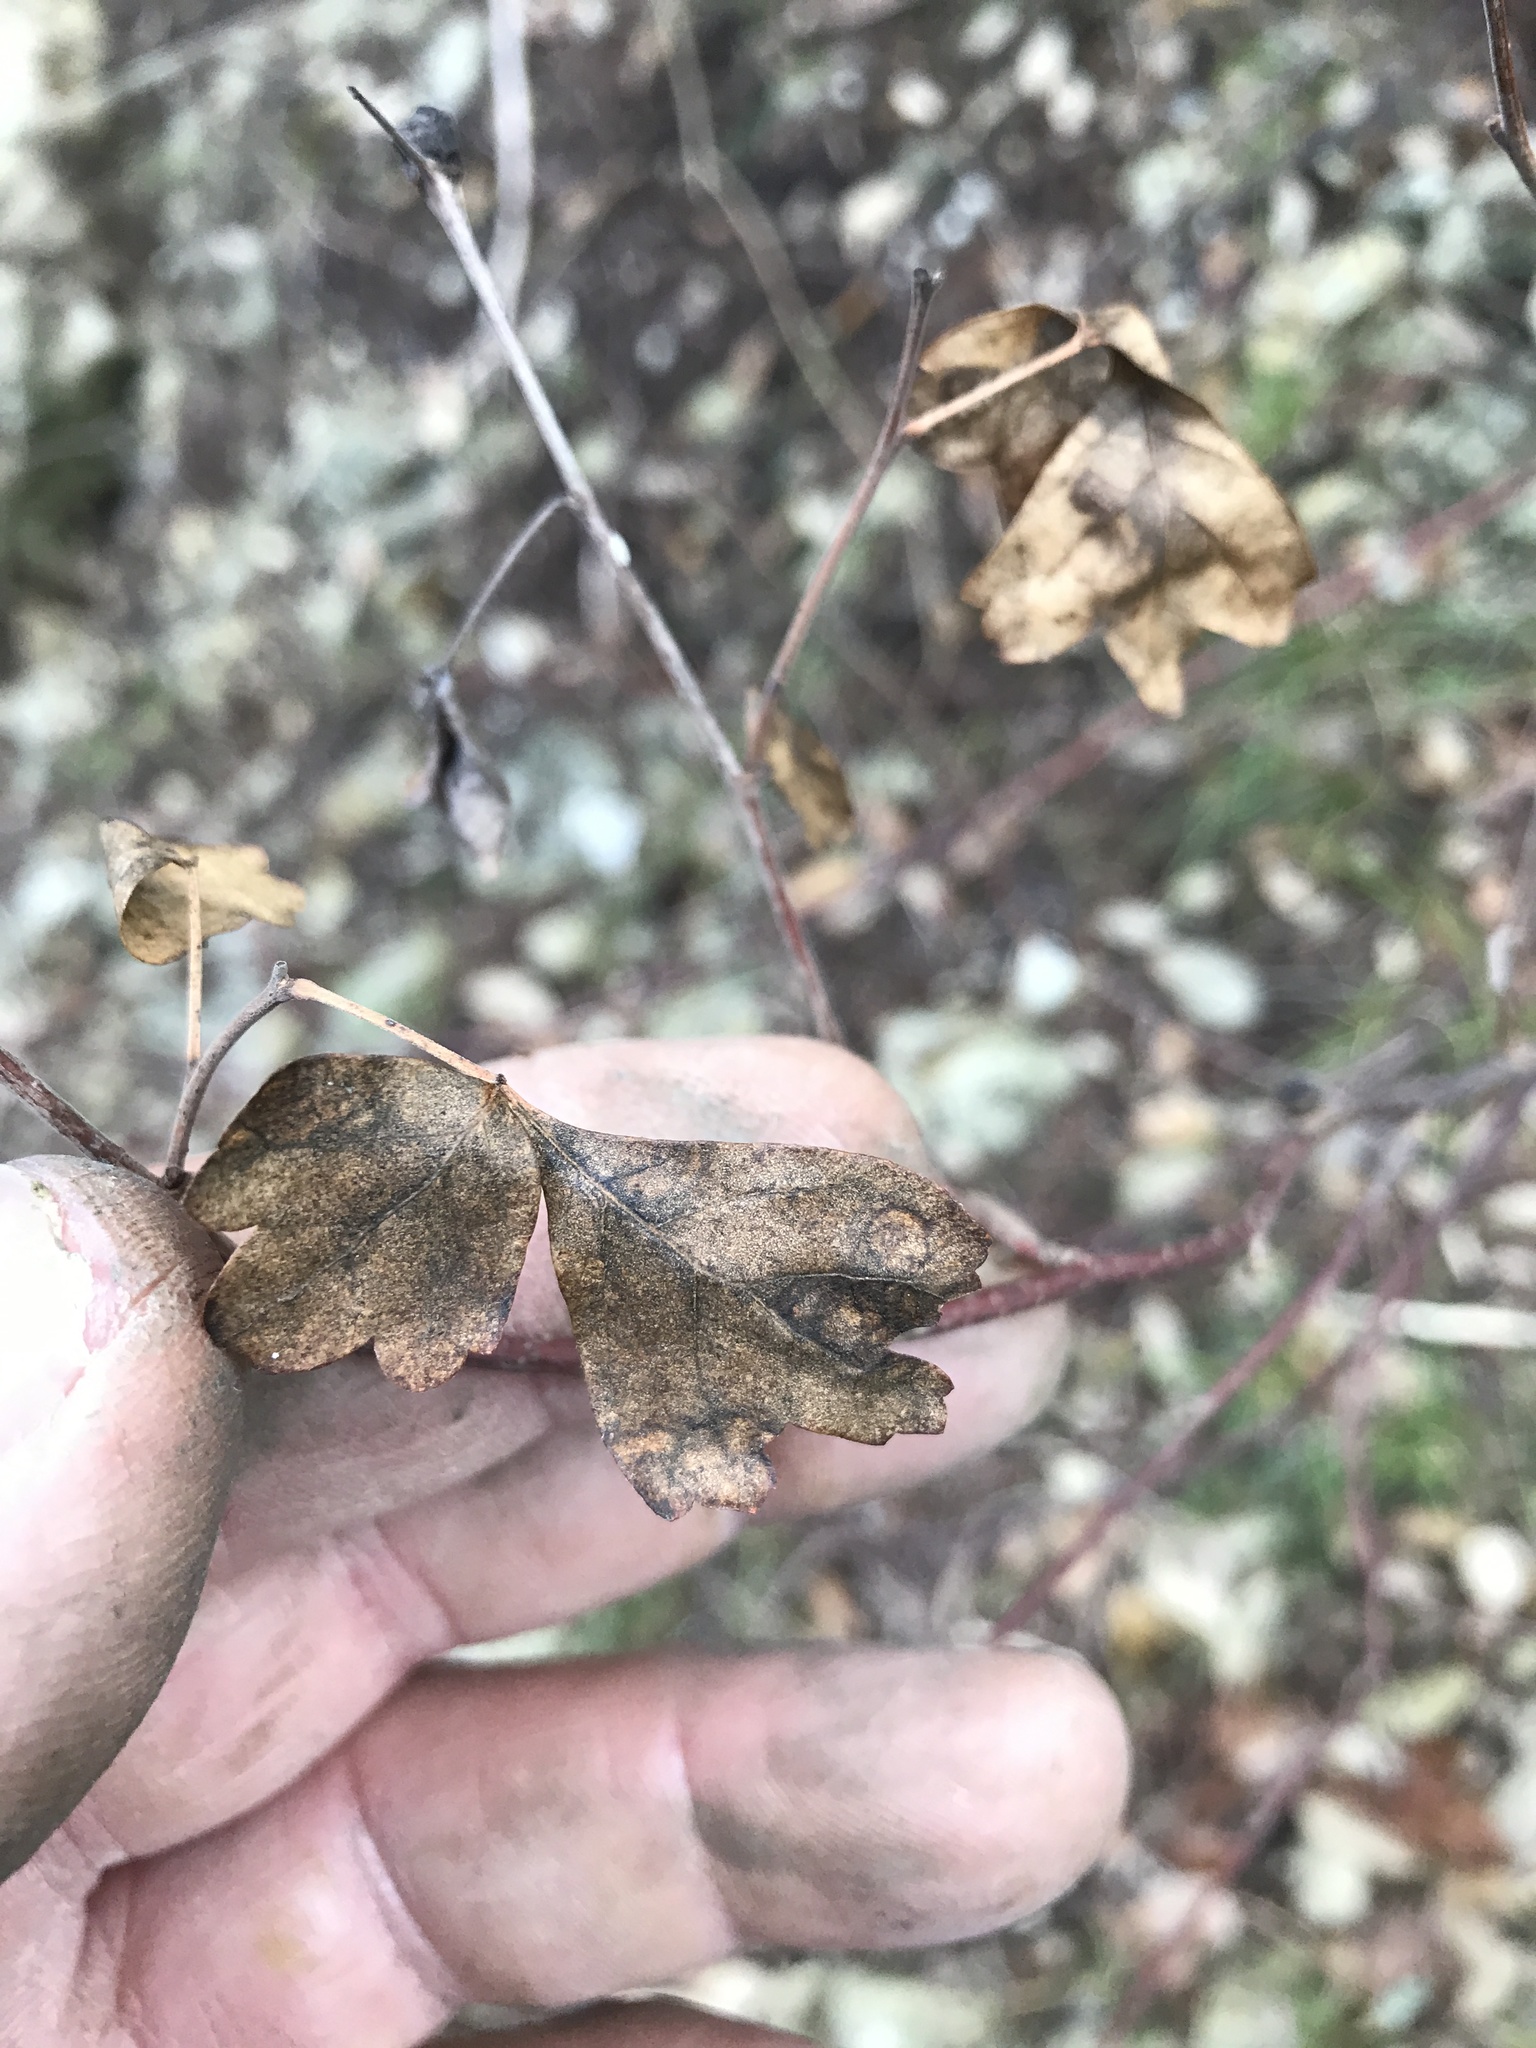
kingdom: Plantae
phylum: Tracheophyta
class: Magnoliopsida
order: Sapindales
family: Anacardiaceae
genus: Rhus
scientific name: Rhus aromatica
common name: Aromatic sumac
